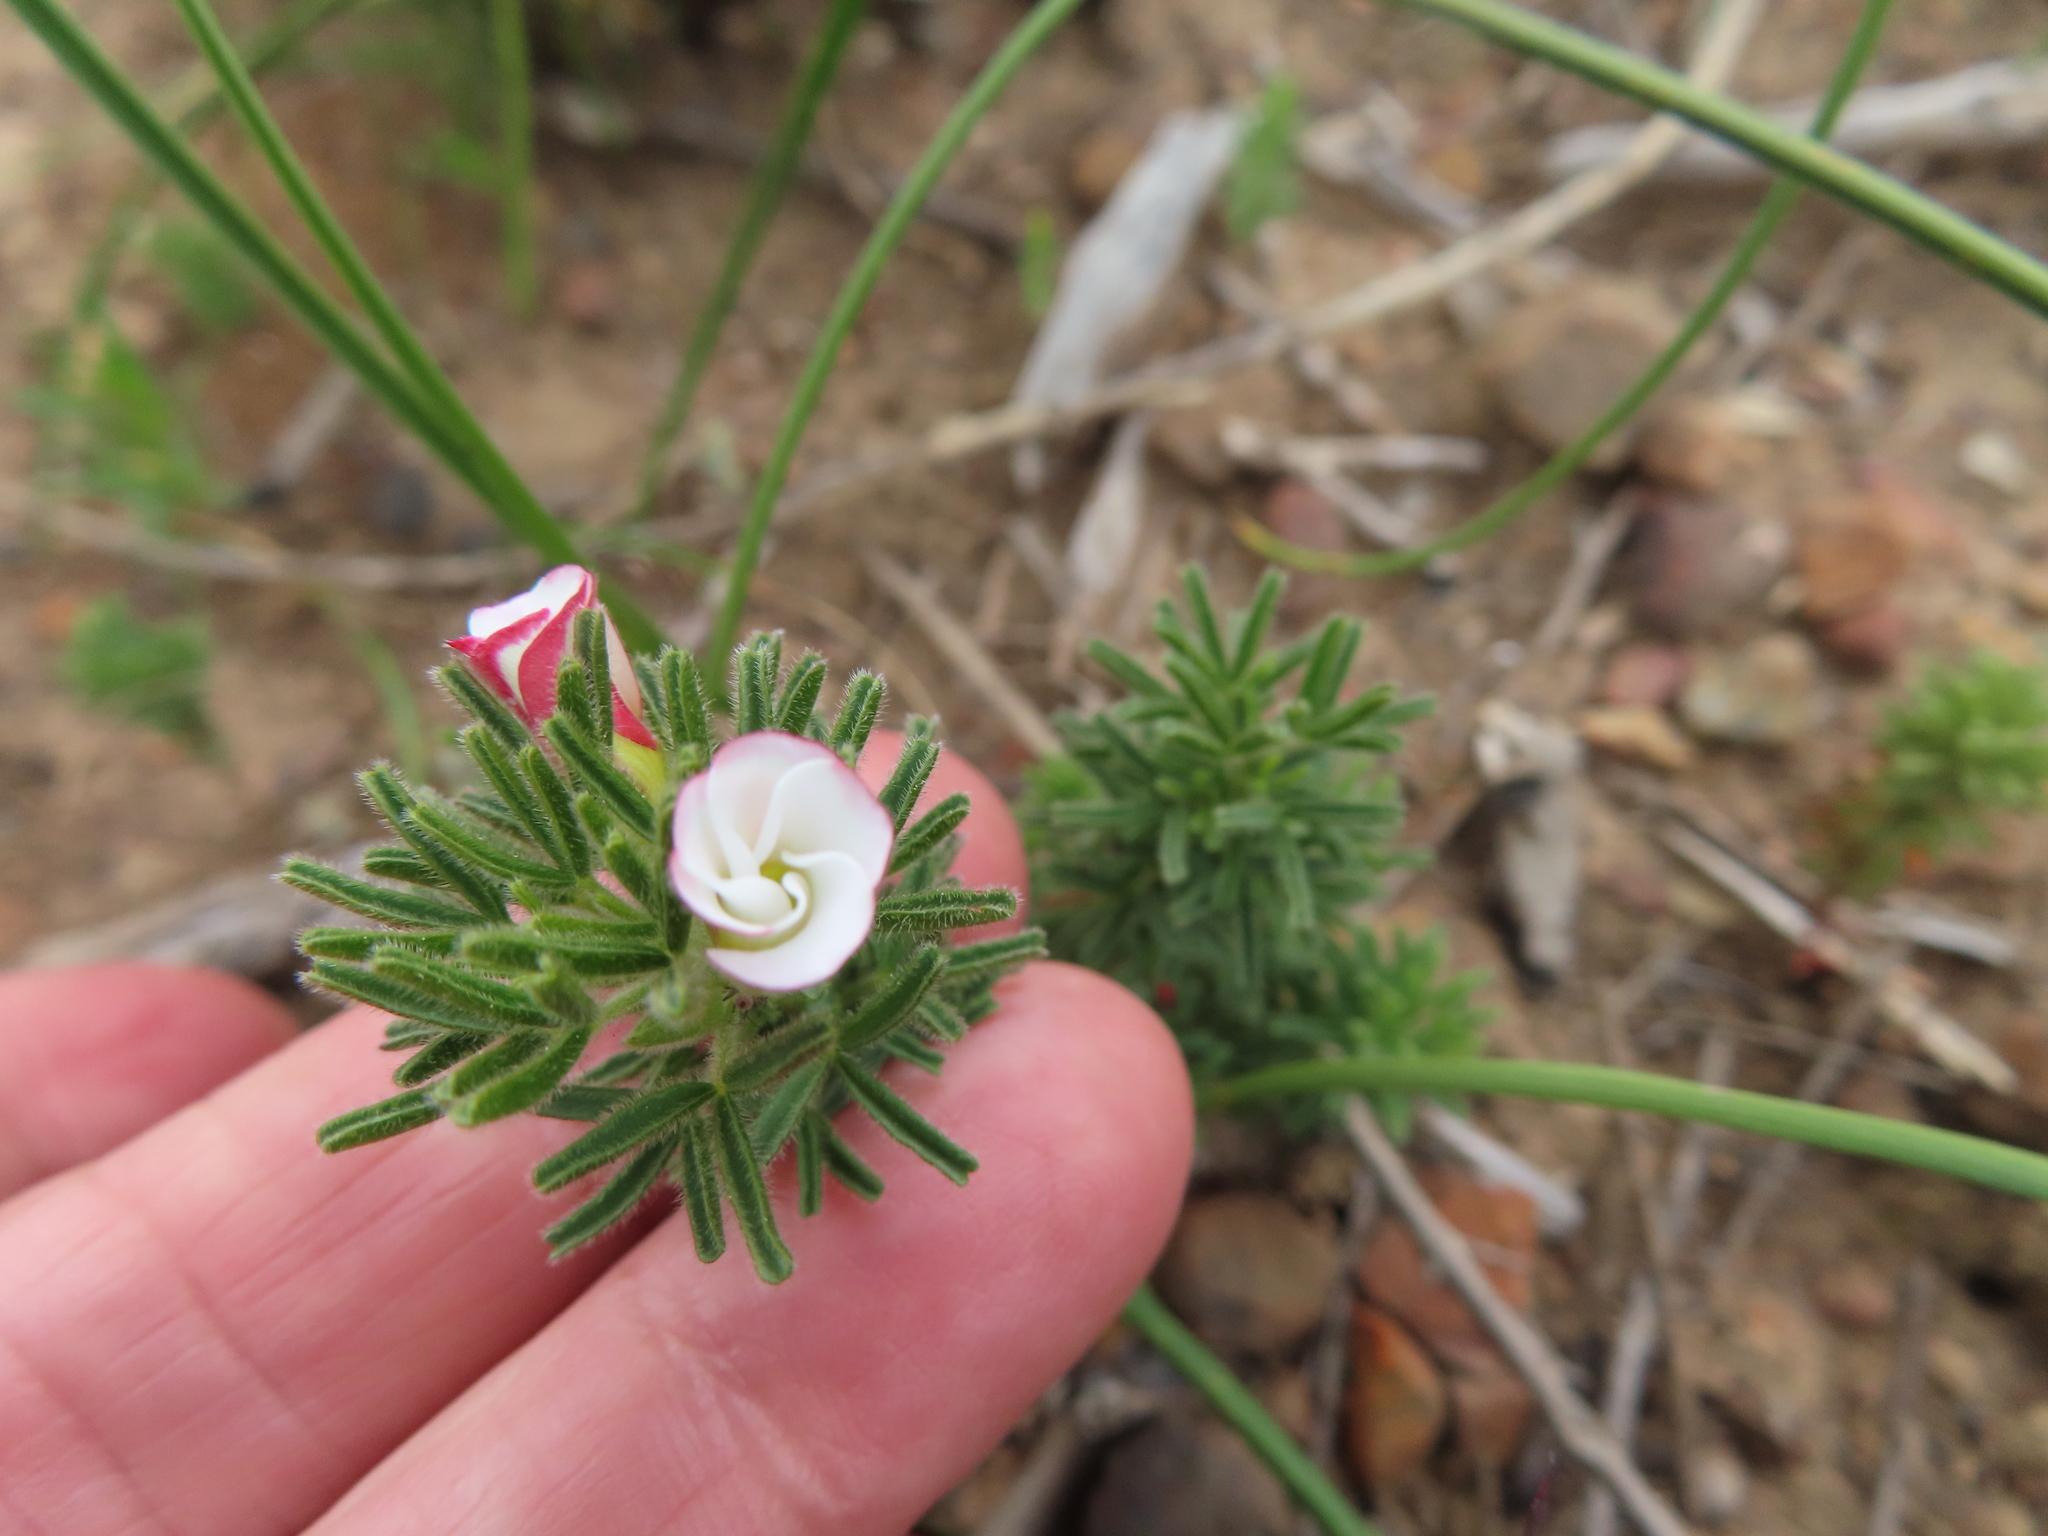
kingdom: Plantae
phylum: Tracheophyta
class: Magnoliopsida
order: Oxalidales
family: Oxalidaceae
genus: Oxalis
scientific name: Oxalis tenuifolia
